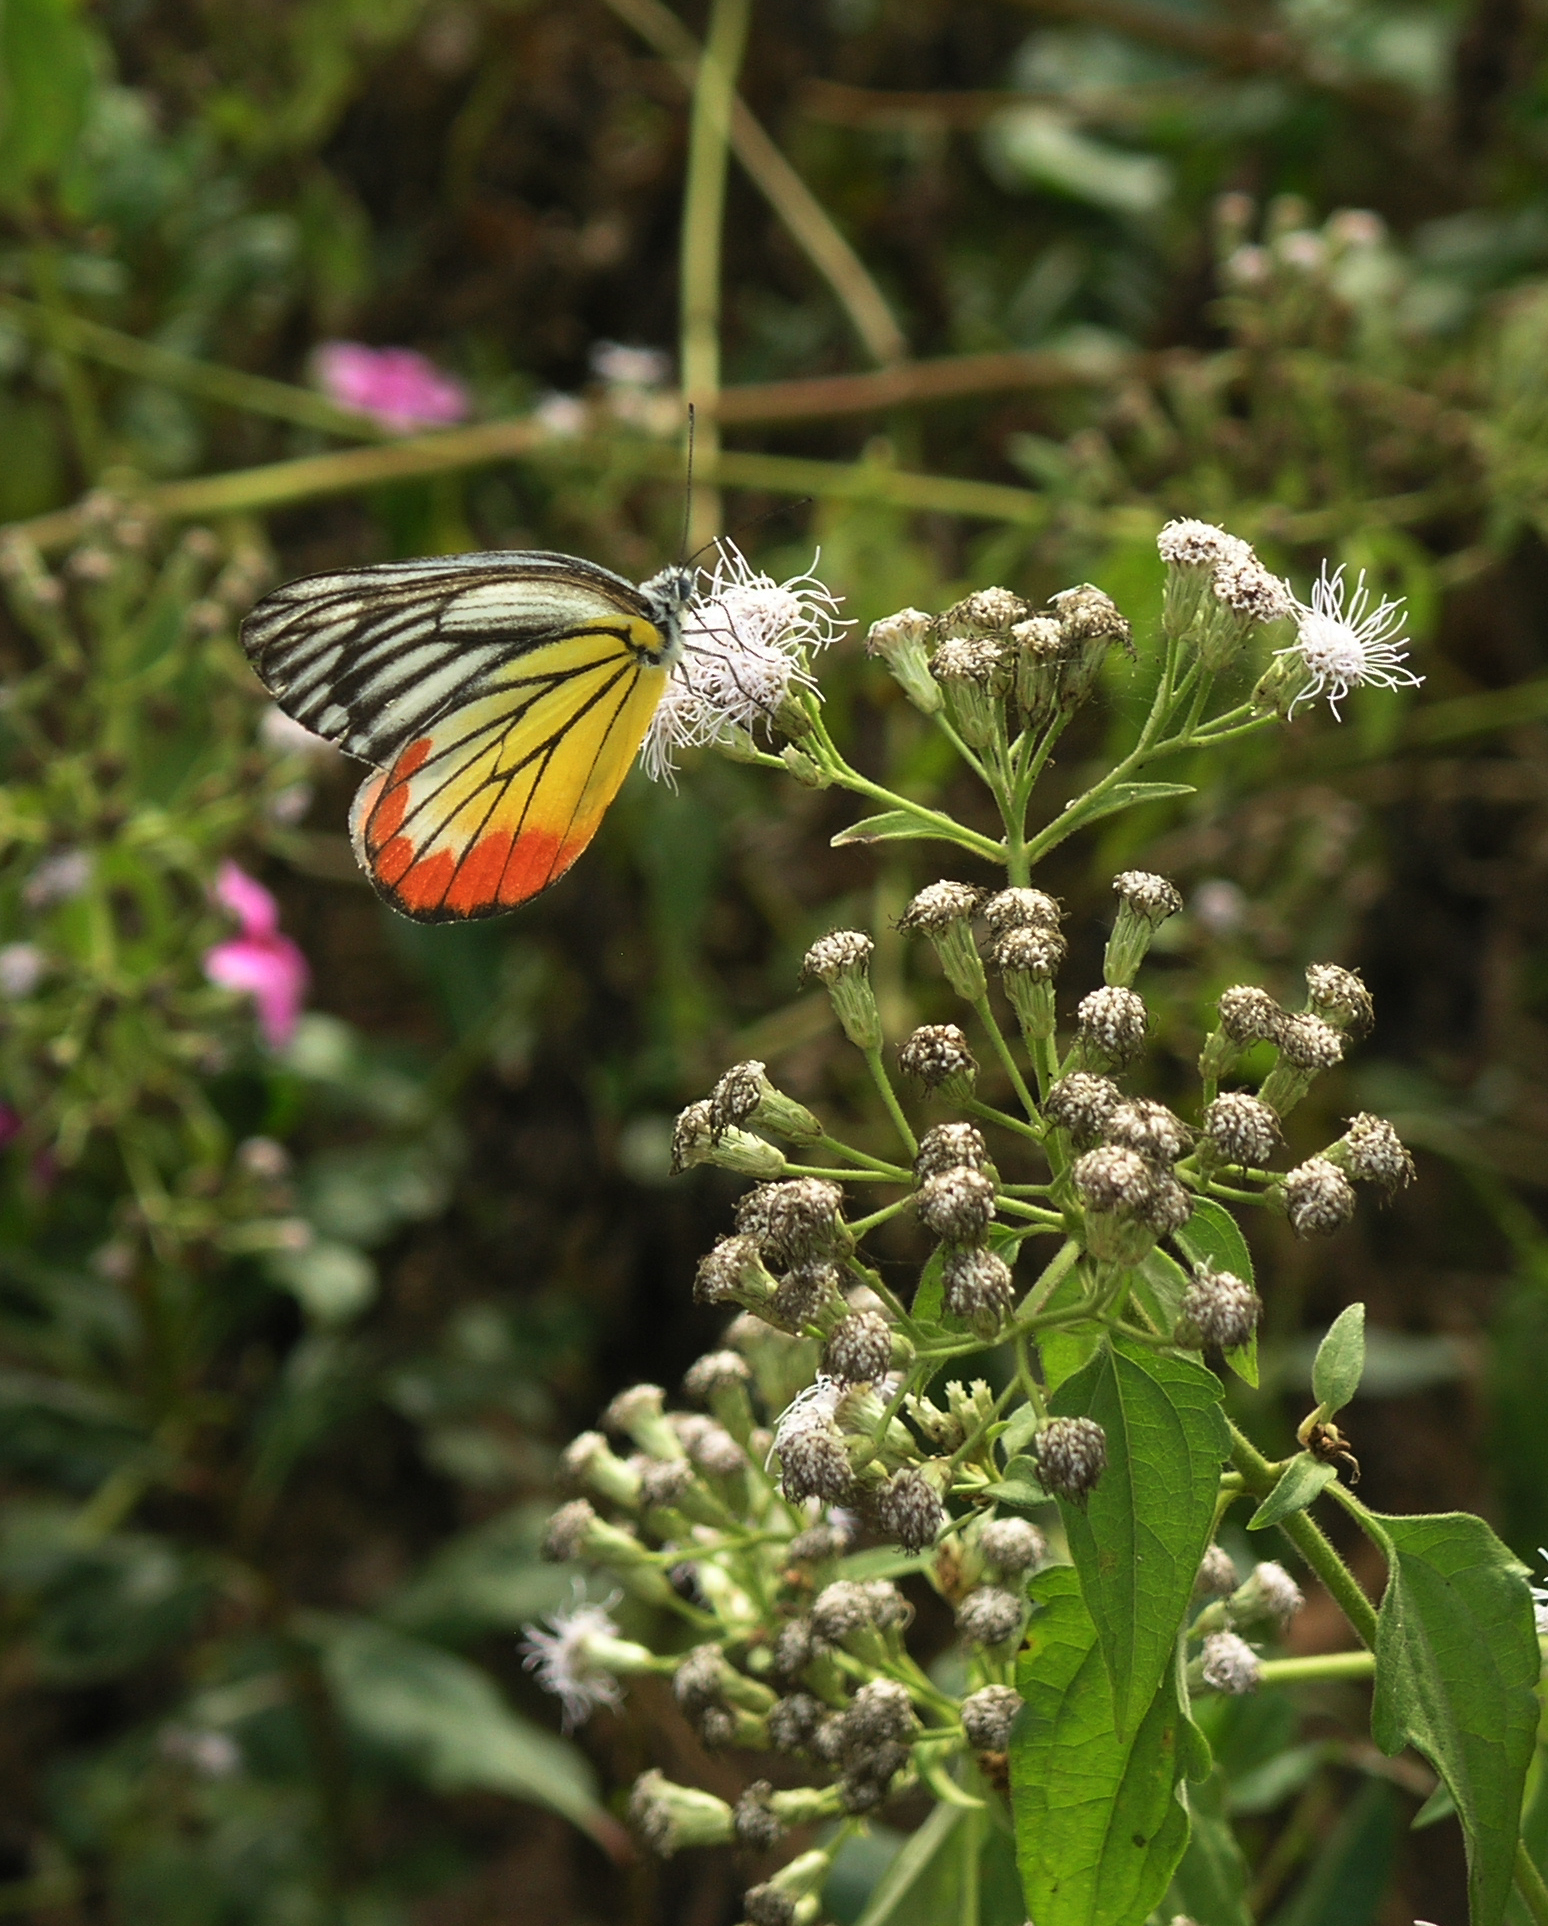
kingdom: Animalia
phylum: Arthropoda
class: Insecta
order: Lepidoptera
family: Pieridae
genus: Delias
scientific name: Delias hyparete
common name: Painted jezebel
